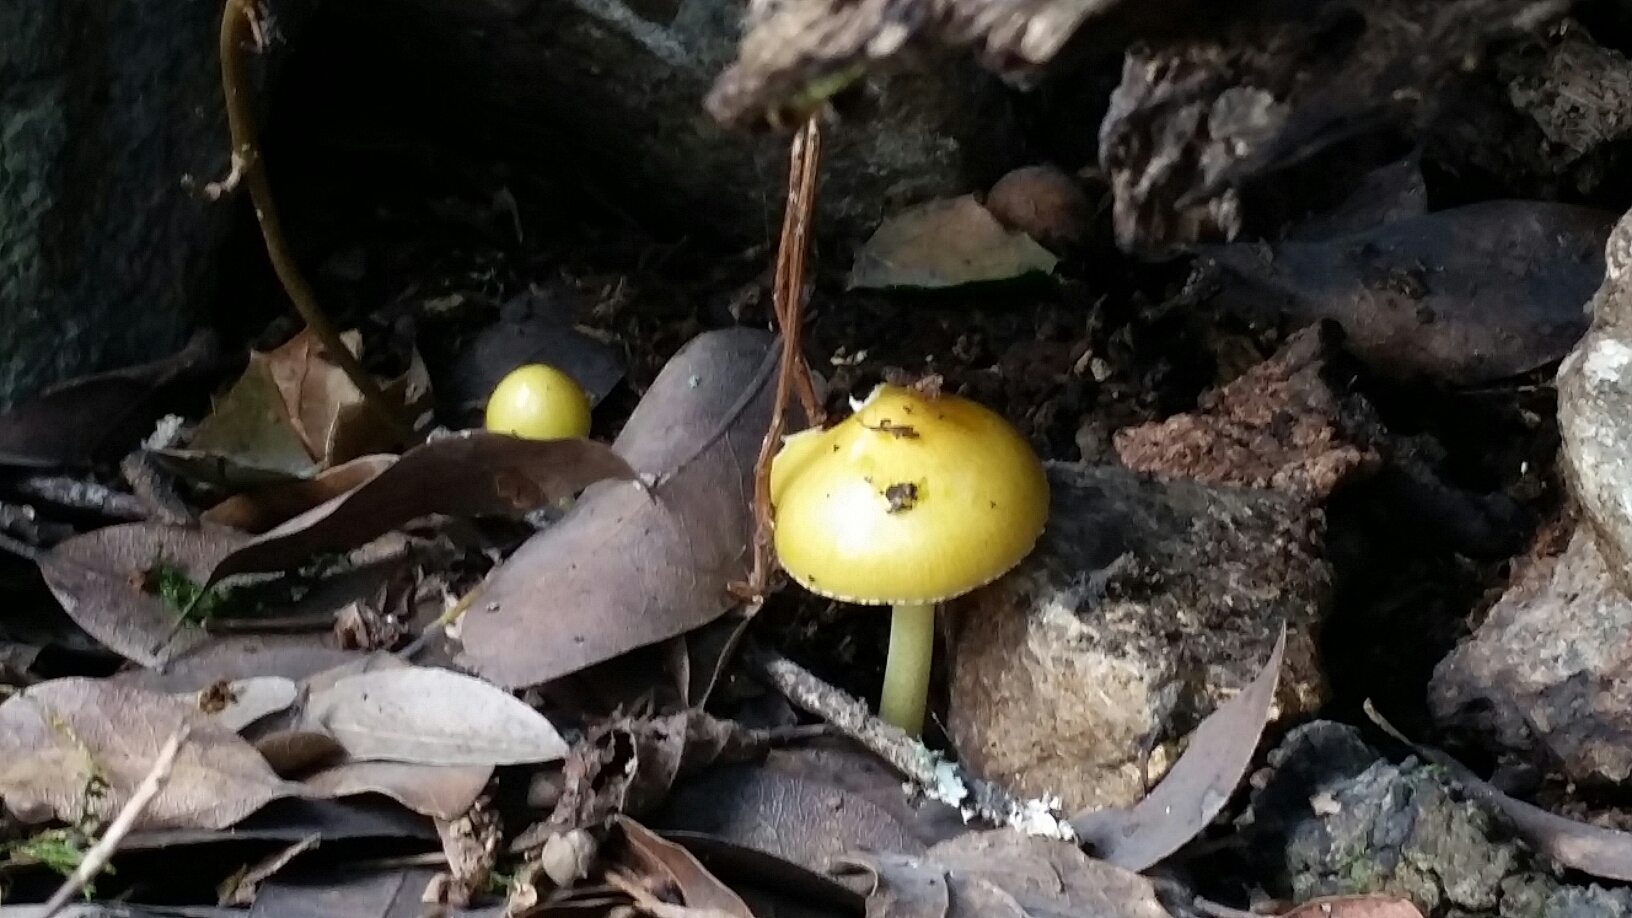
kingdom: Fungi
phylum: Basidiomycota
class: Agaricomycetes
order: Agaricales
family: Bolbitiaceae
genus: Bolbitius
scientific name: Bolbitius titubans
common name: Yellow fieldcap
